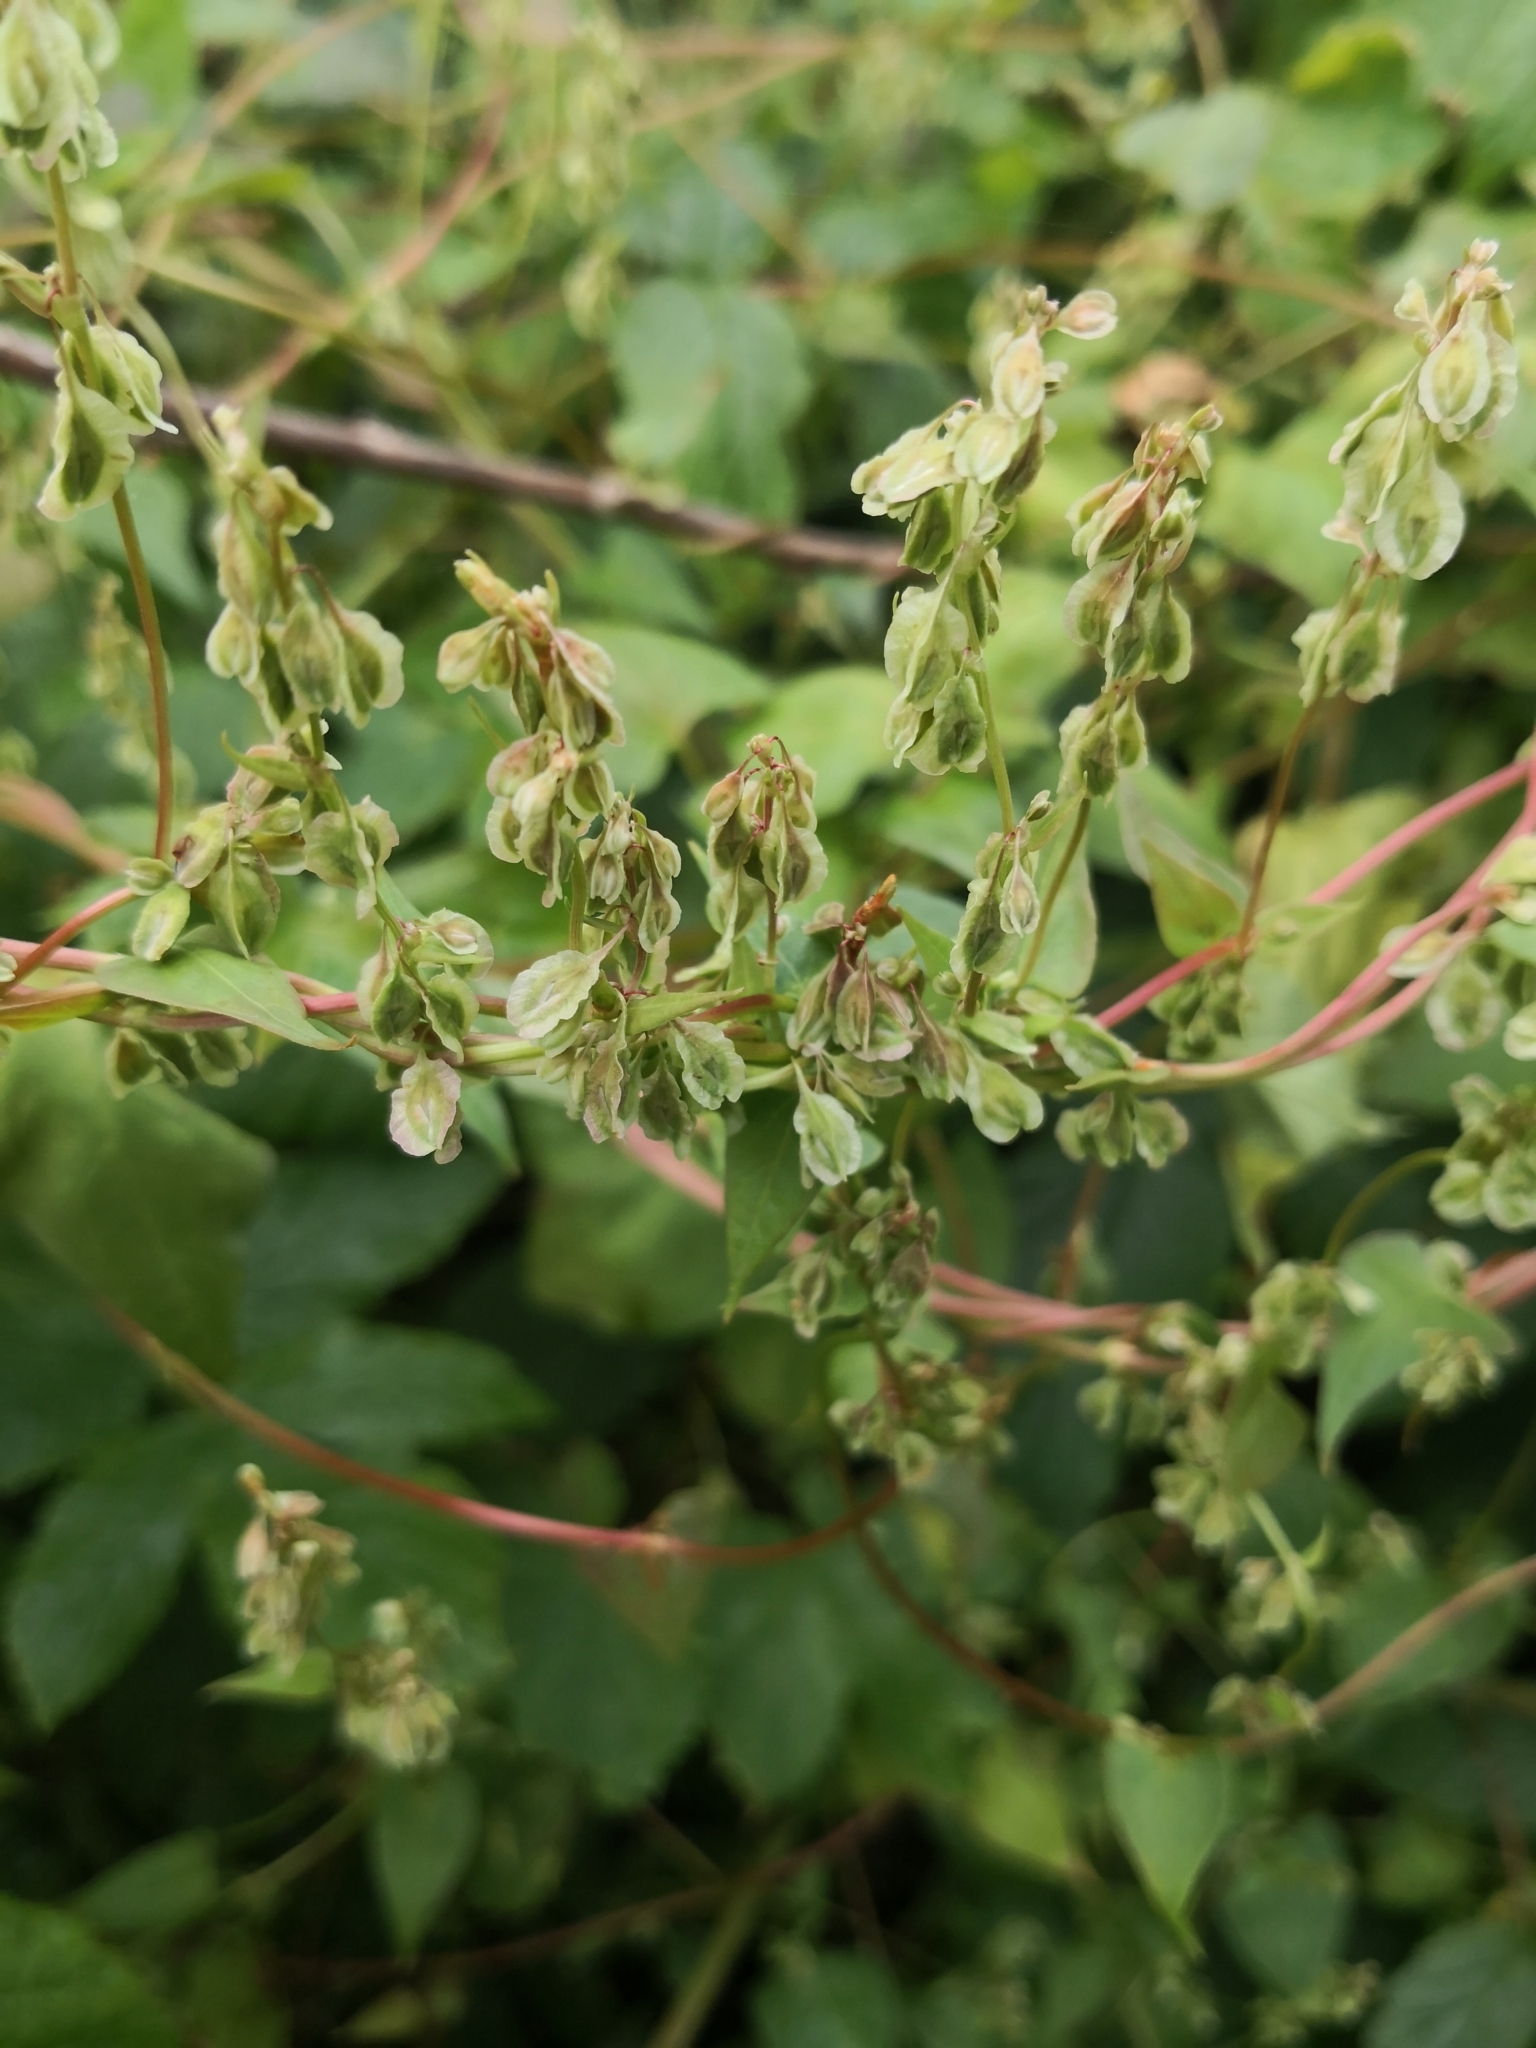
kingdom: Plantae
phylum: Tracheophyta
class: Magnoliopsida
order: Caryophyllales
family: Polygonaceae
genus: Fallopia
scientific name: Fallopia dumetorum
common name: Copse-bindweed
